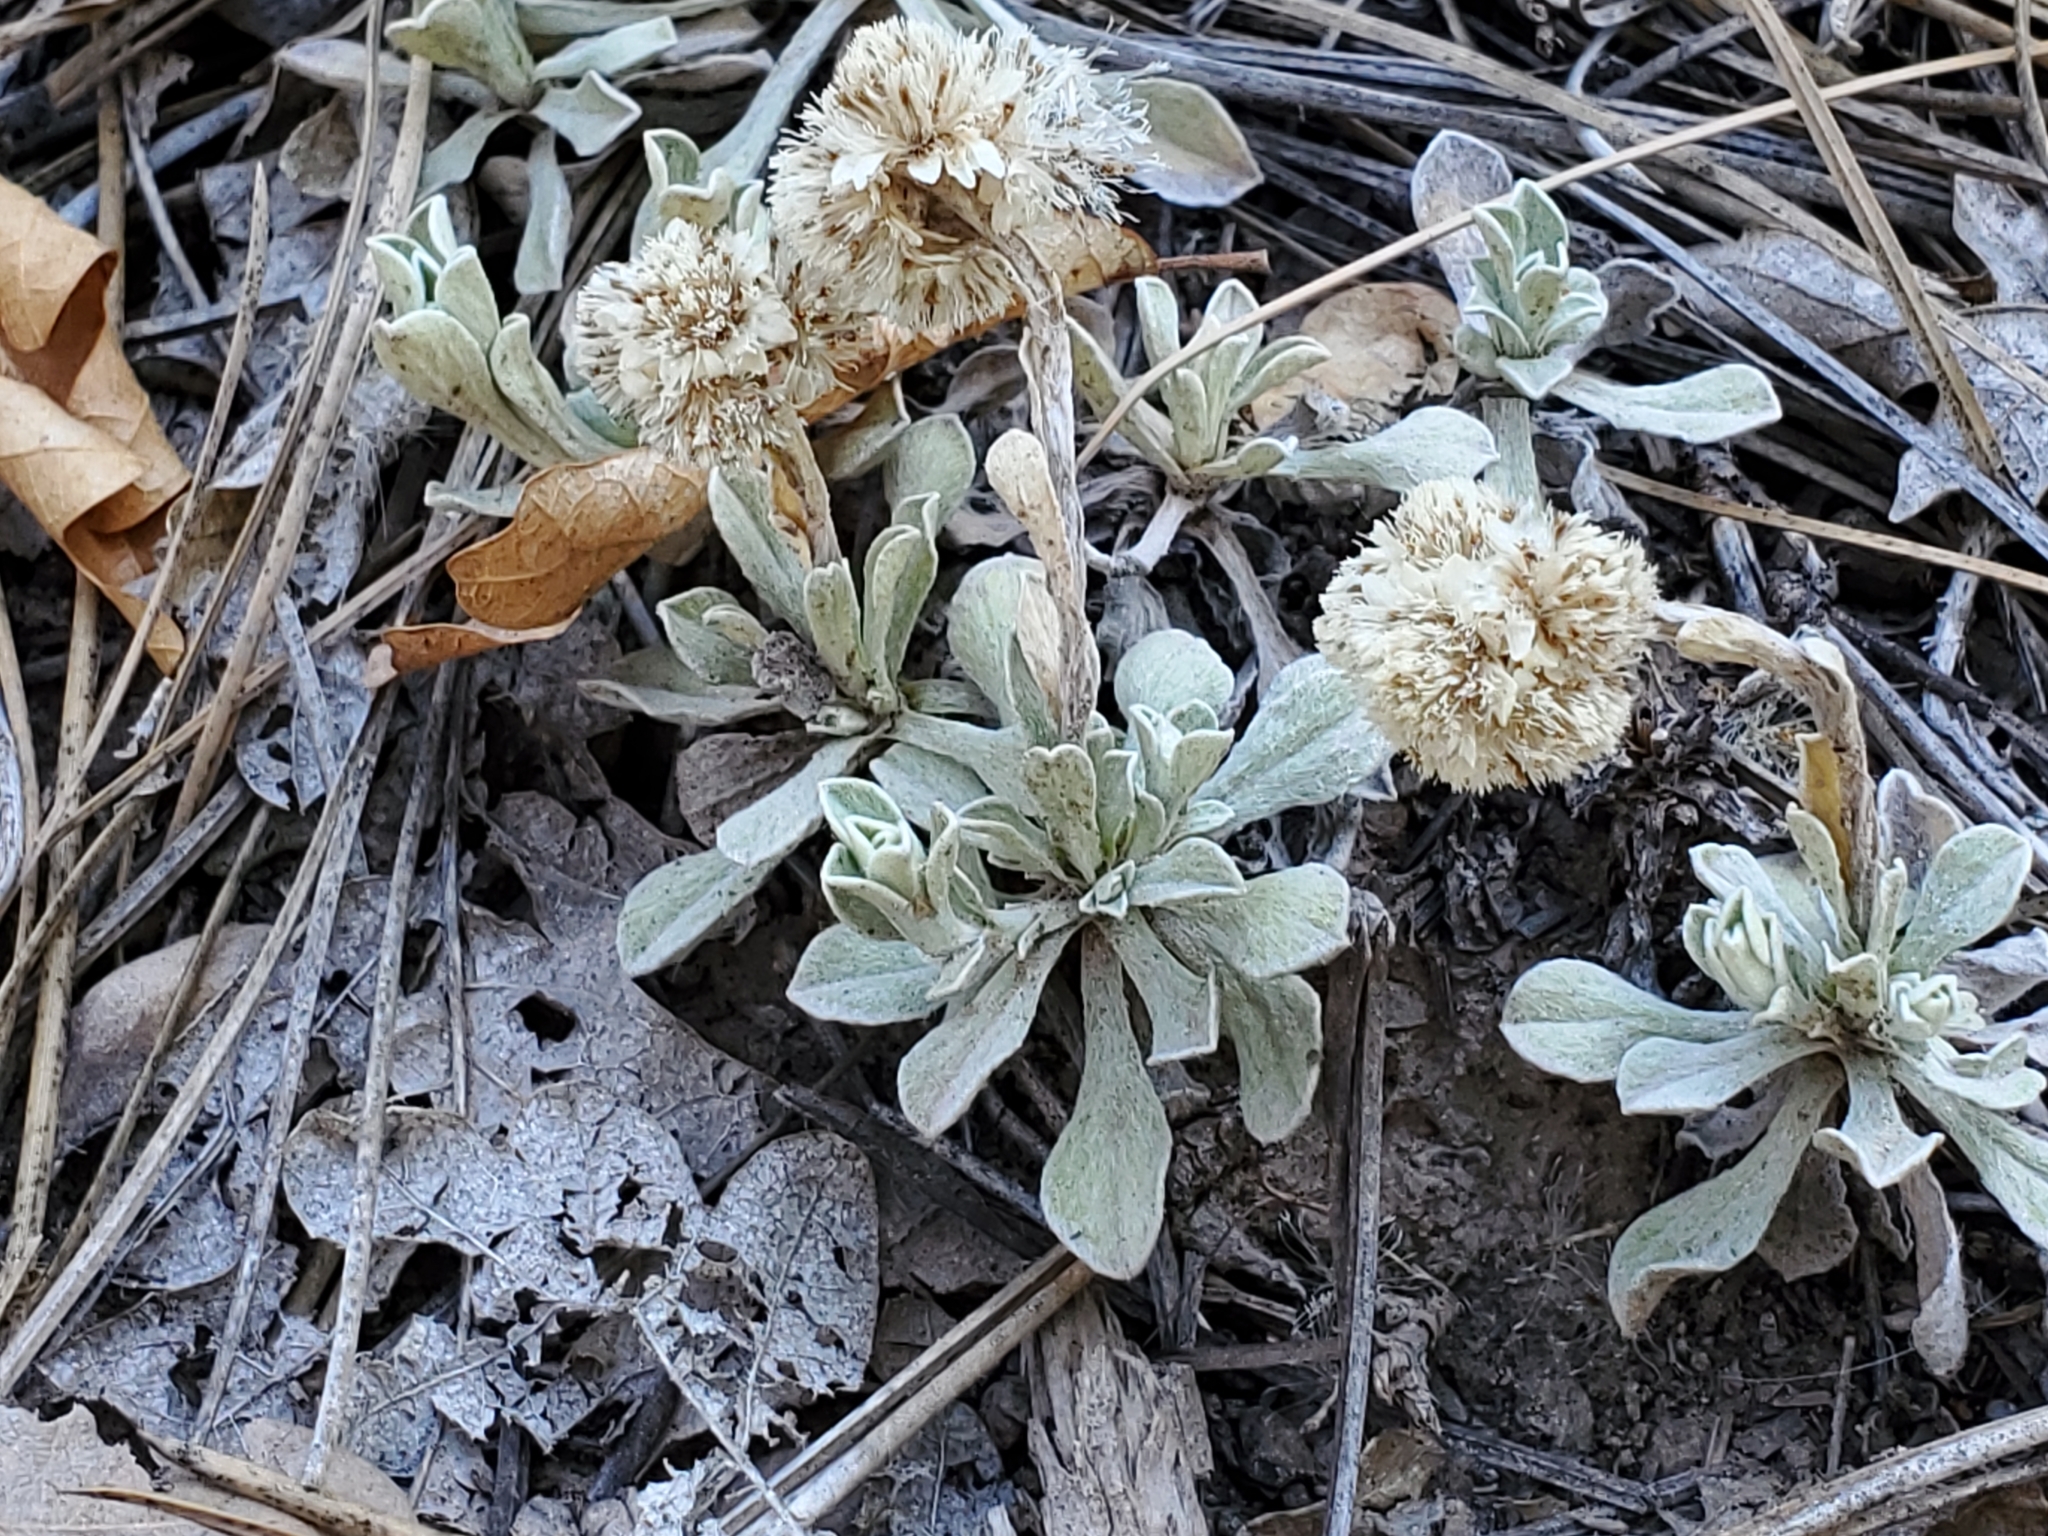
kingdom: Plantae
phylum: Tracheophyta
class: Magnoliopsida
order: Asterales
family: Asteraceae
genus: Antennaria
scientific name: Antennaria parvifolia
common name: Nuttall's pussytoes
